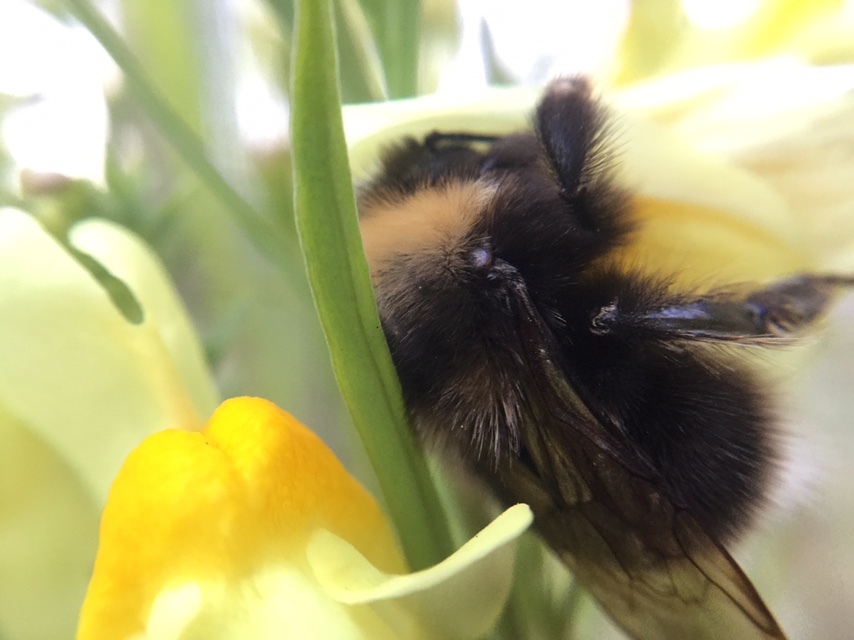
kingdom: Animalia
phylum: Arthropoda
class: Insecta
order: Hymenoptera
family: Apidae
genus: Bombus
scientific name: Bombus occidentalis
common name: Western bumble bee
